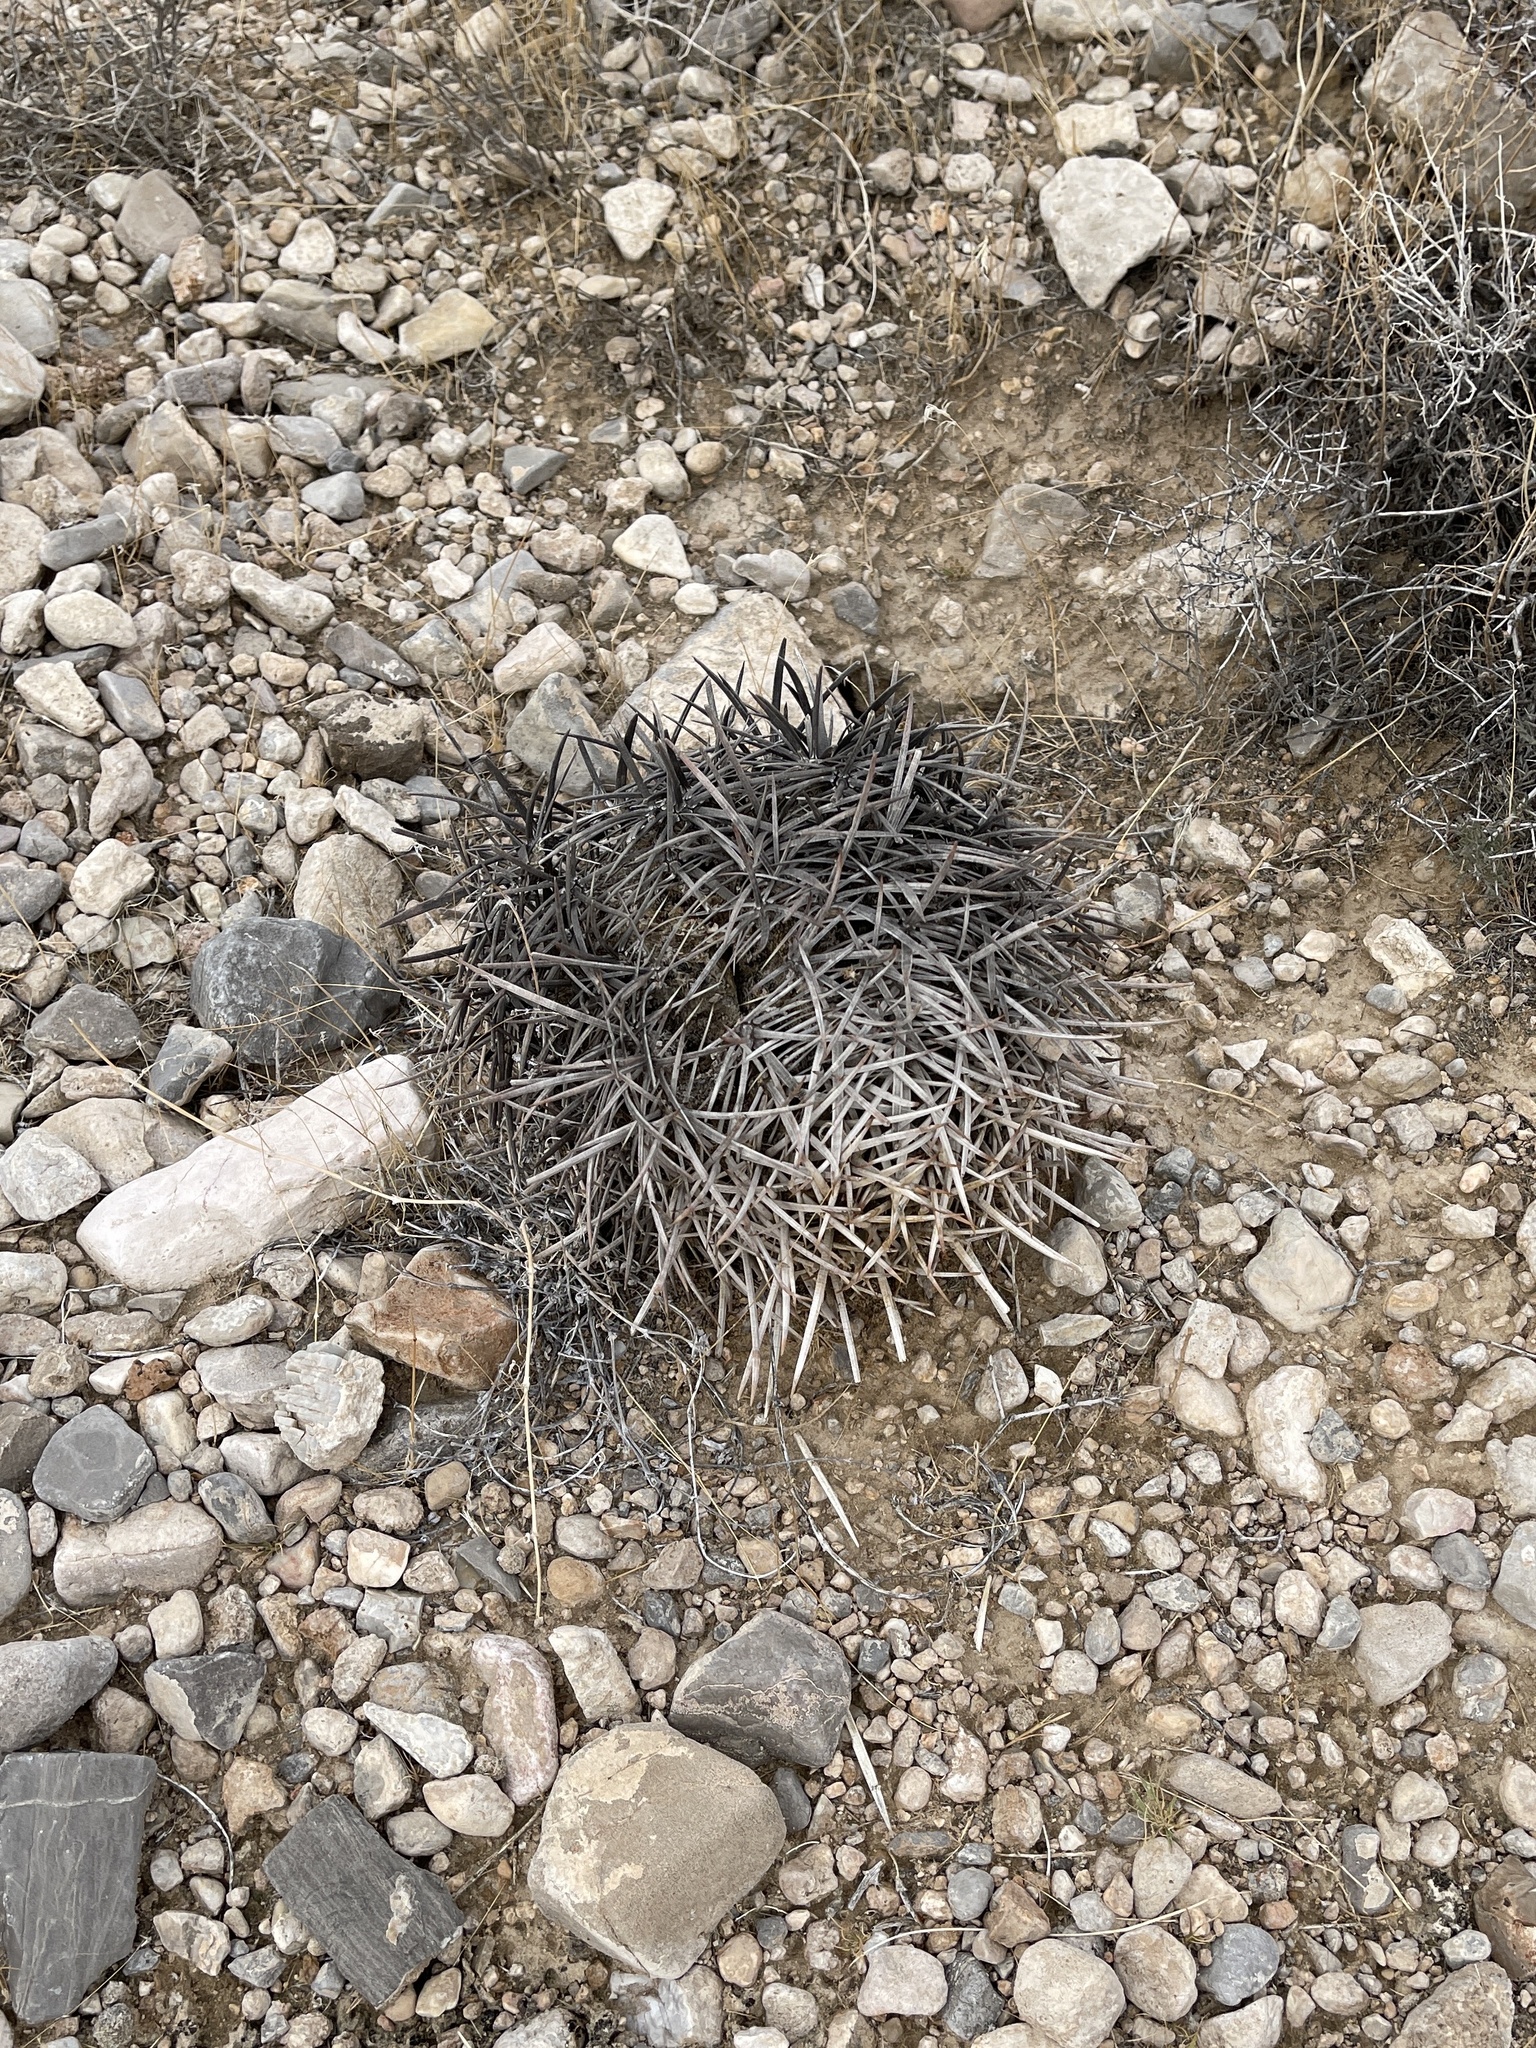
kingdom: Plantae
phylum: Tracheophyta
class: Magnoliopsida
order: Caryophyllales
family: Cactaceae
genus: Echinocactus
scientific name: Echinocactus polycephalus
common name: Cottontop cactus
